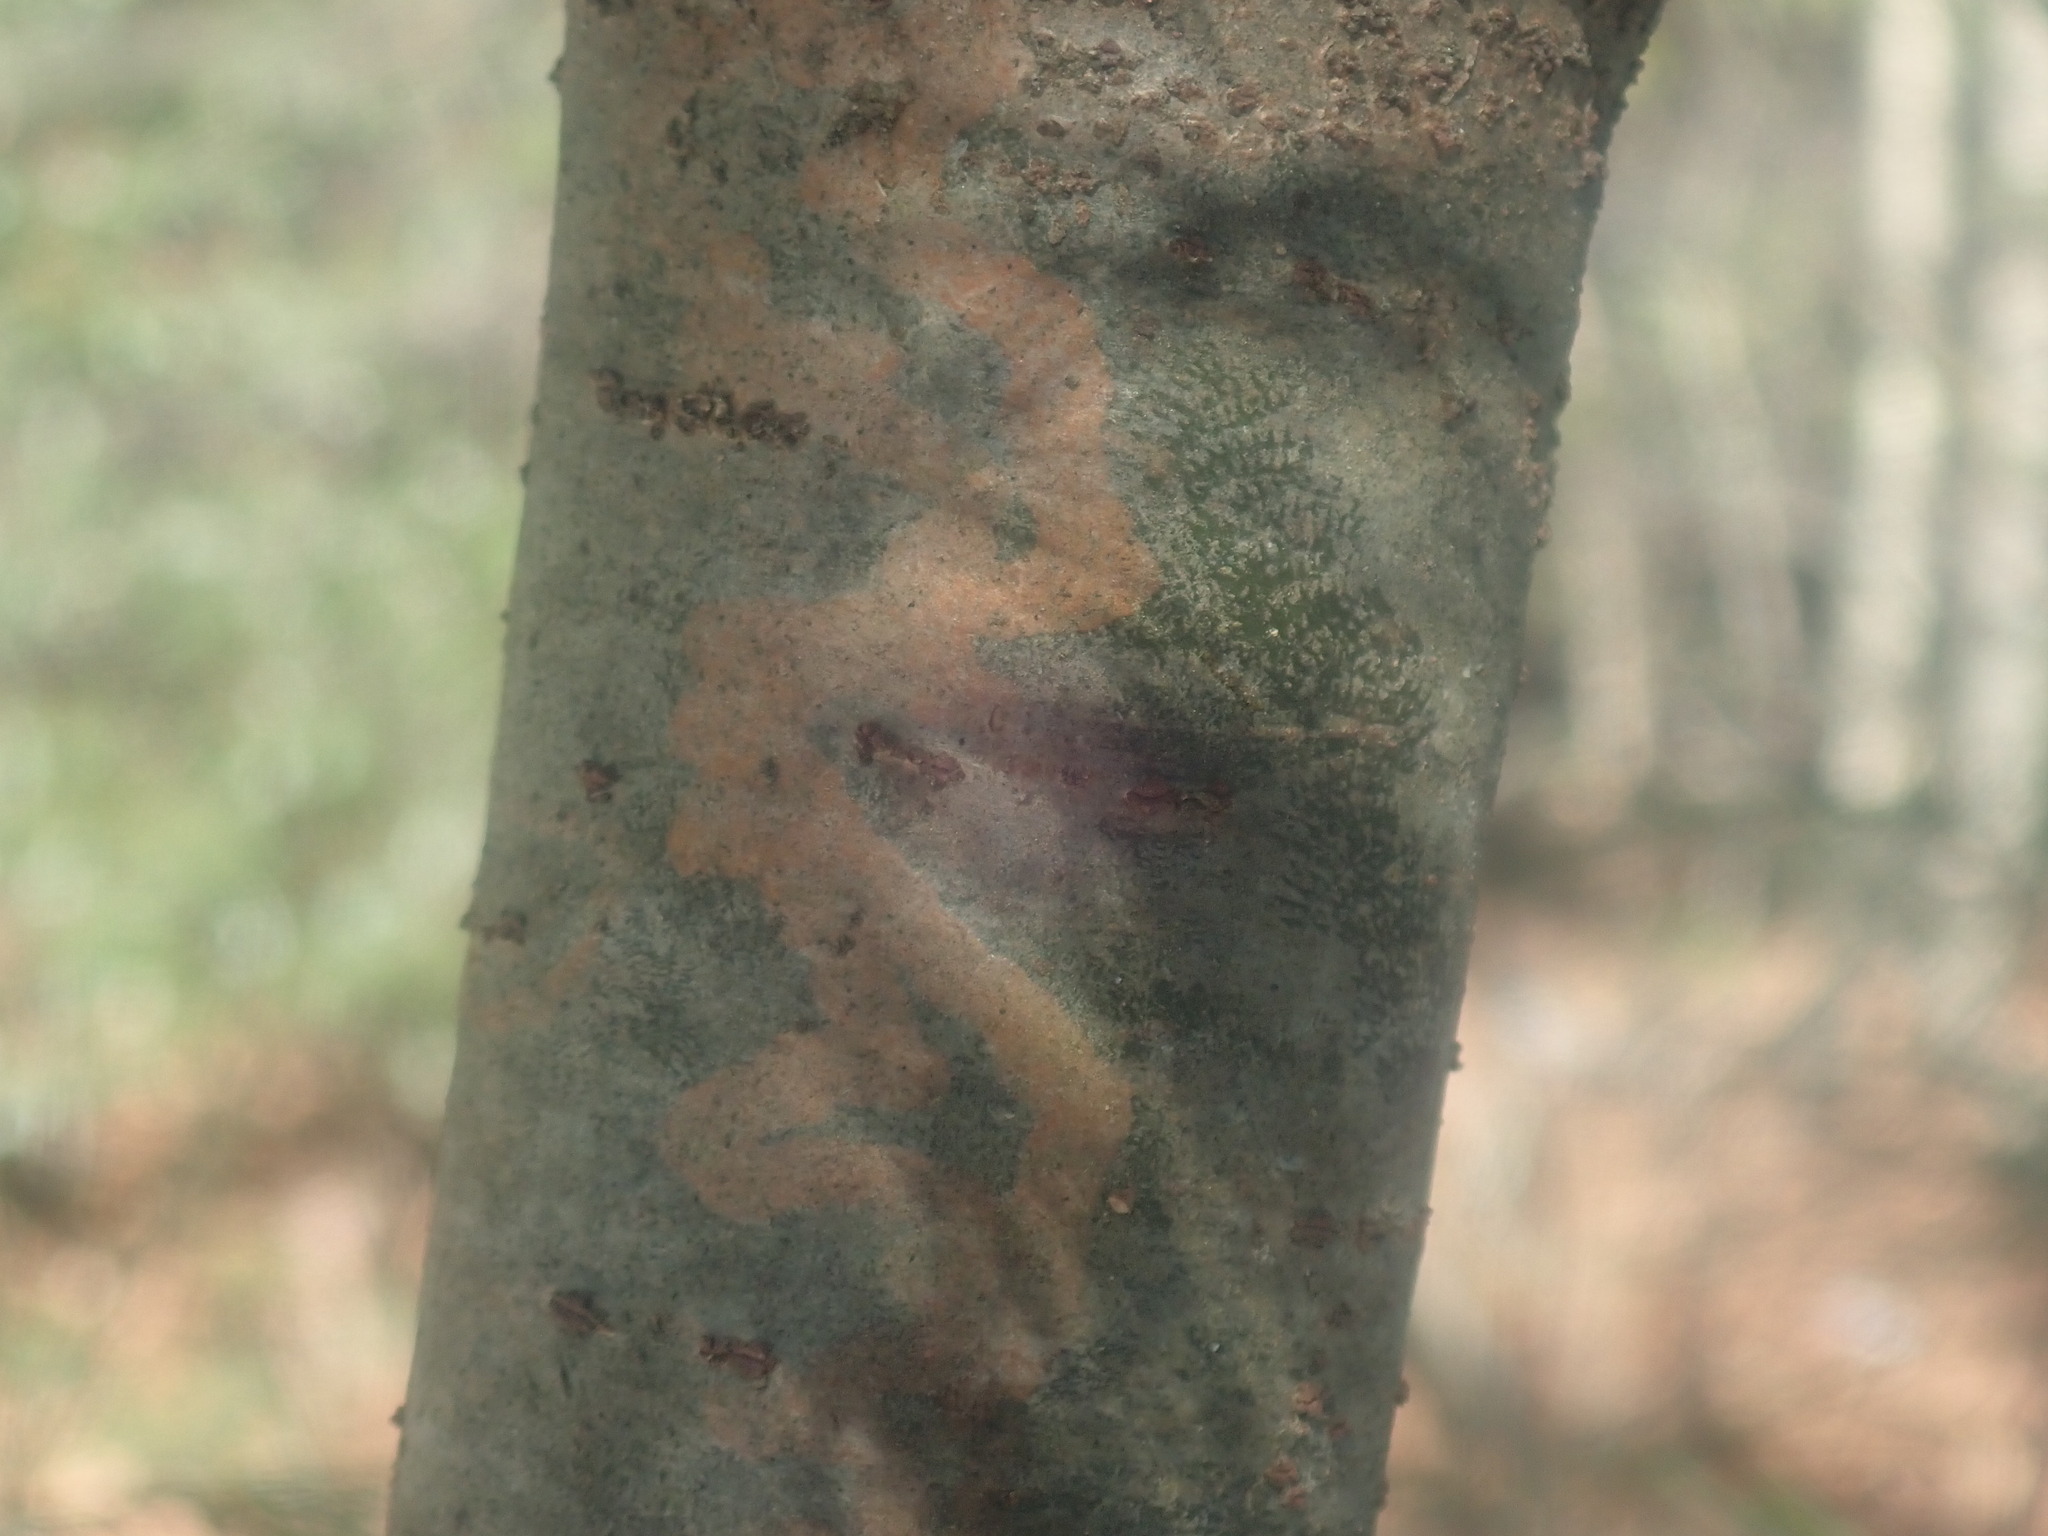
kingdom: Animalia
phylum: Arthropoda
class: Insecta
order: Lepidoptera
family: Gracillariidae
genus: Marmara
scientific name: Marmara fasciella
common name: White pine barkminer moth
